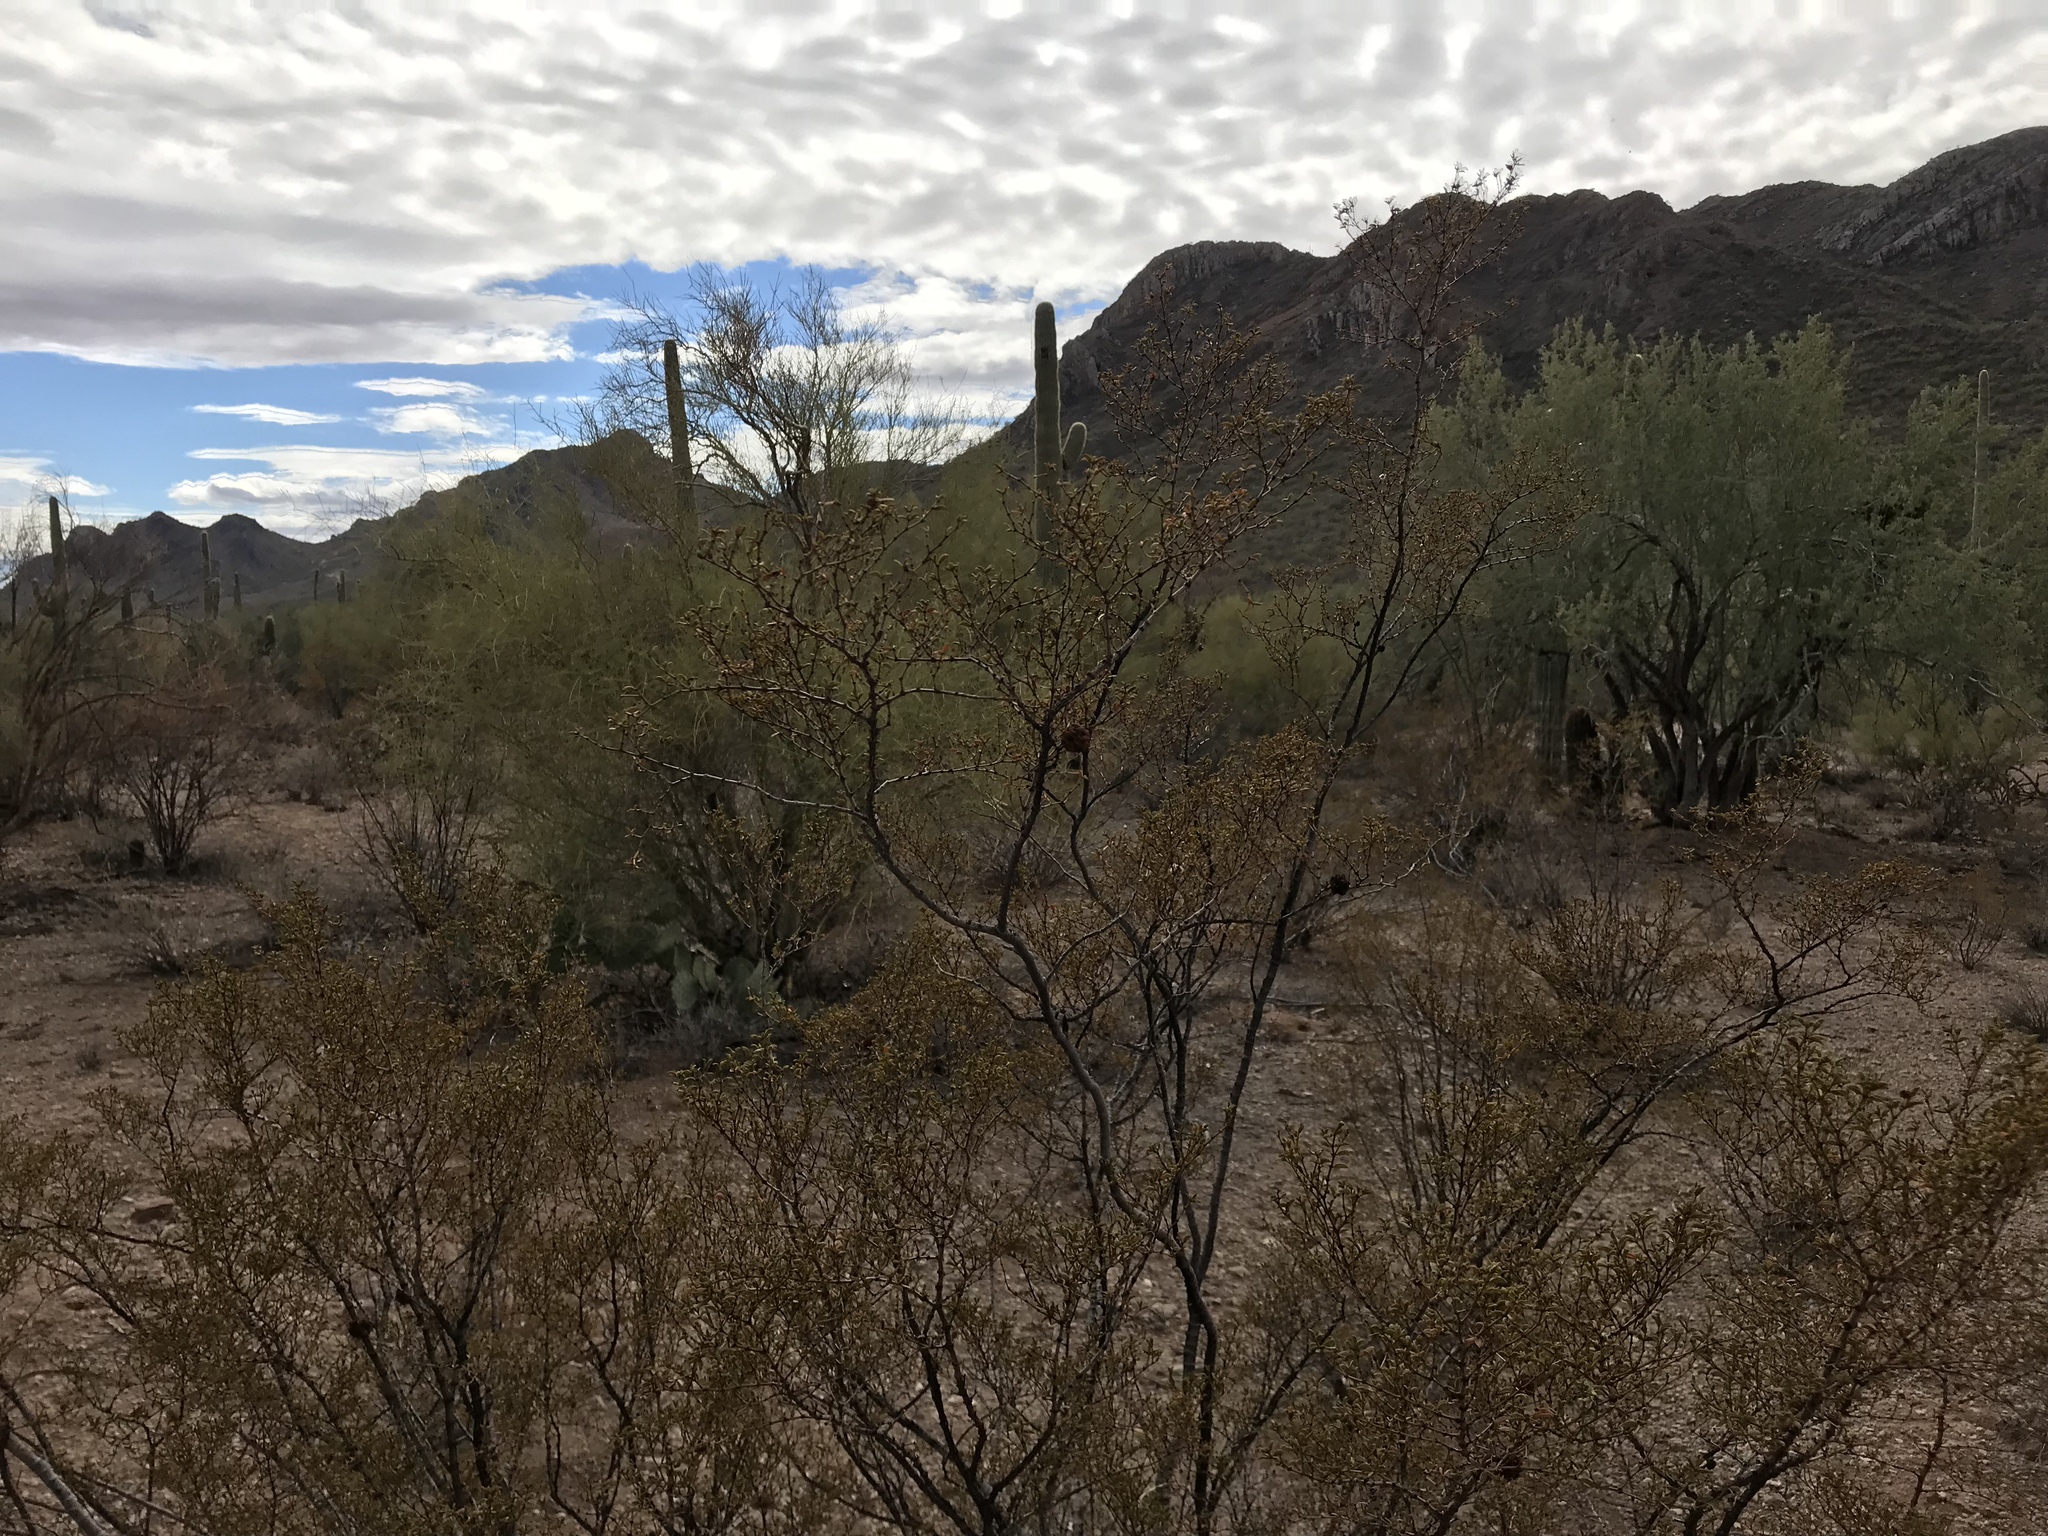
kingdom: Plantae
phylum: Tracheophyta
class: Magnoliopsida
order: Zygophyllales
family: Zygophyllaceae
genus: Larrea
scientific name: Larrea tridentata
